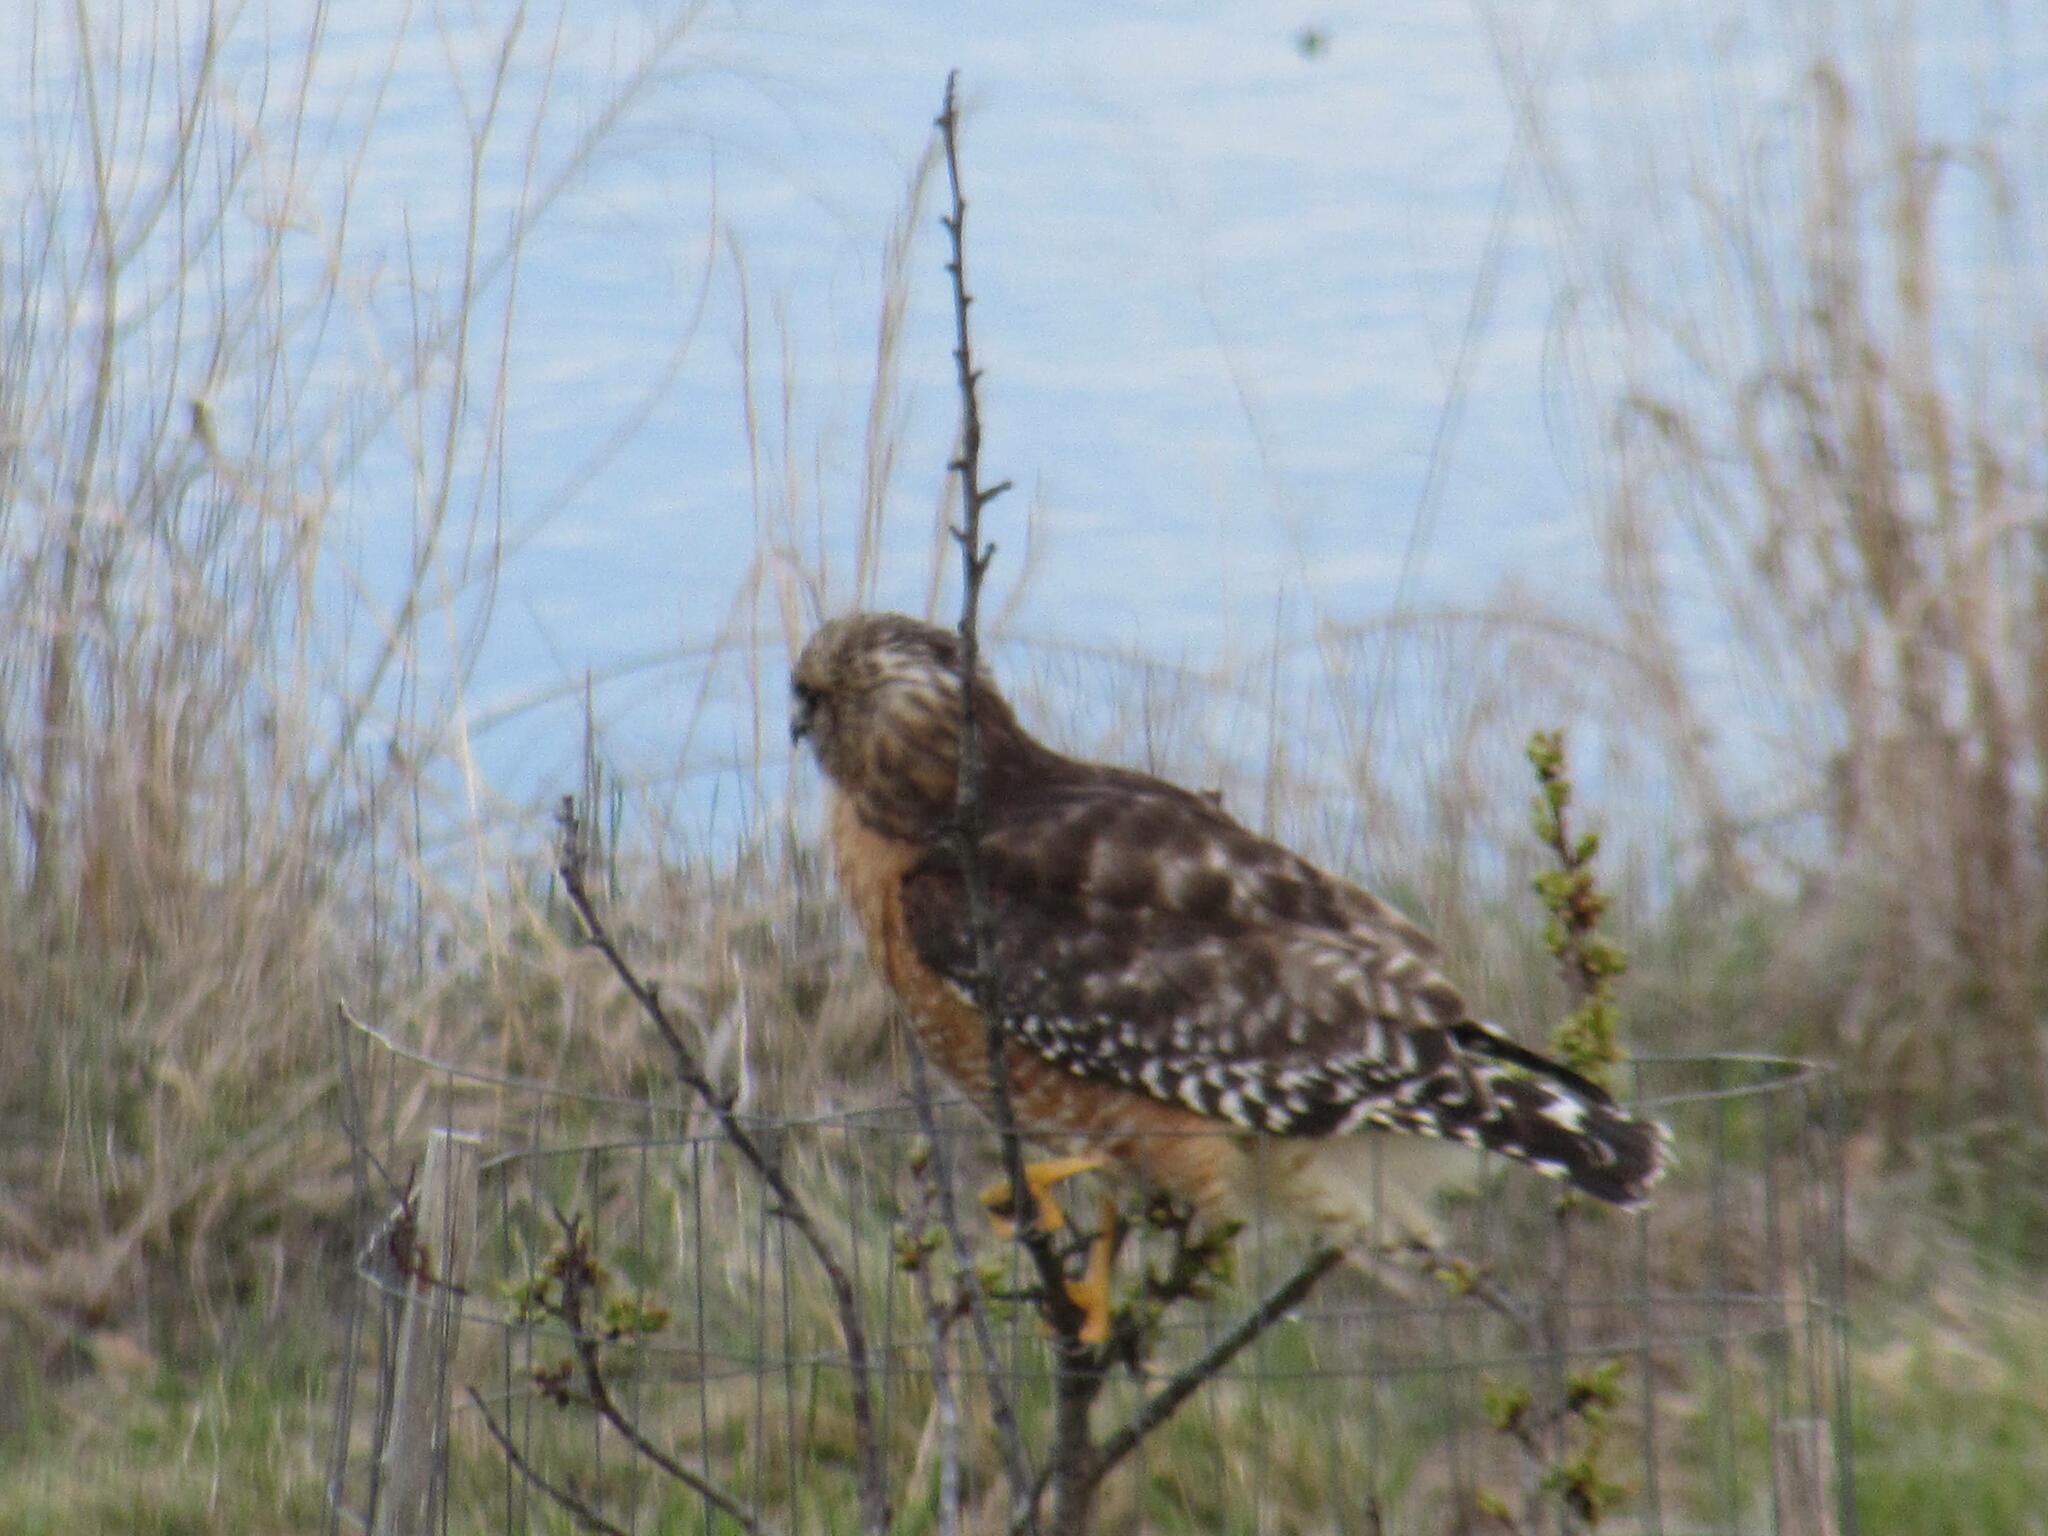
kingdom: Animalia
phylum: Chordata
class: Aves
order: Accipitriformes
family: Accipitridae
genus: Buteo
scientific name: Buteo lineatus
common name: Red-shouldered hawk
